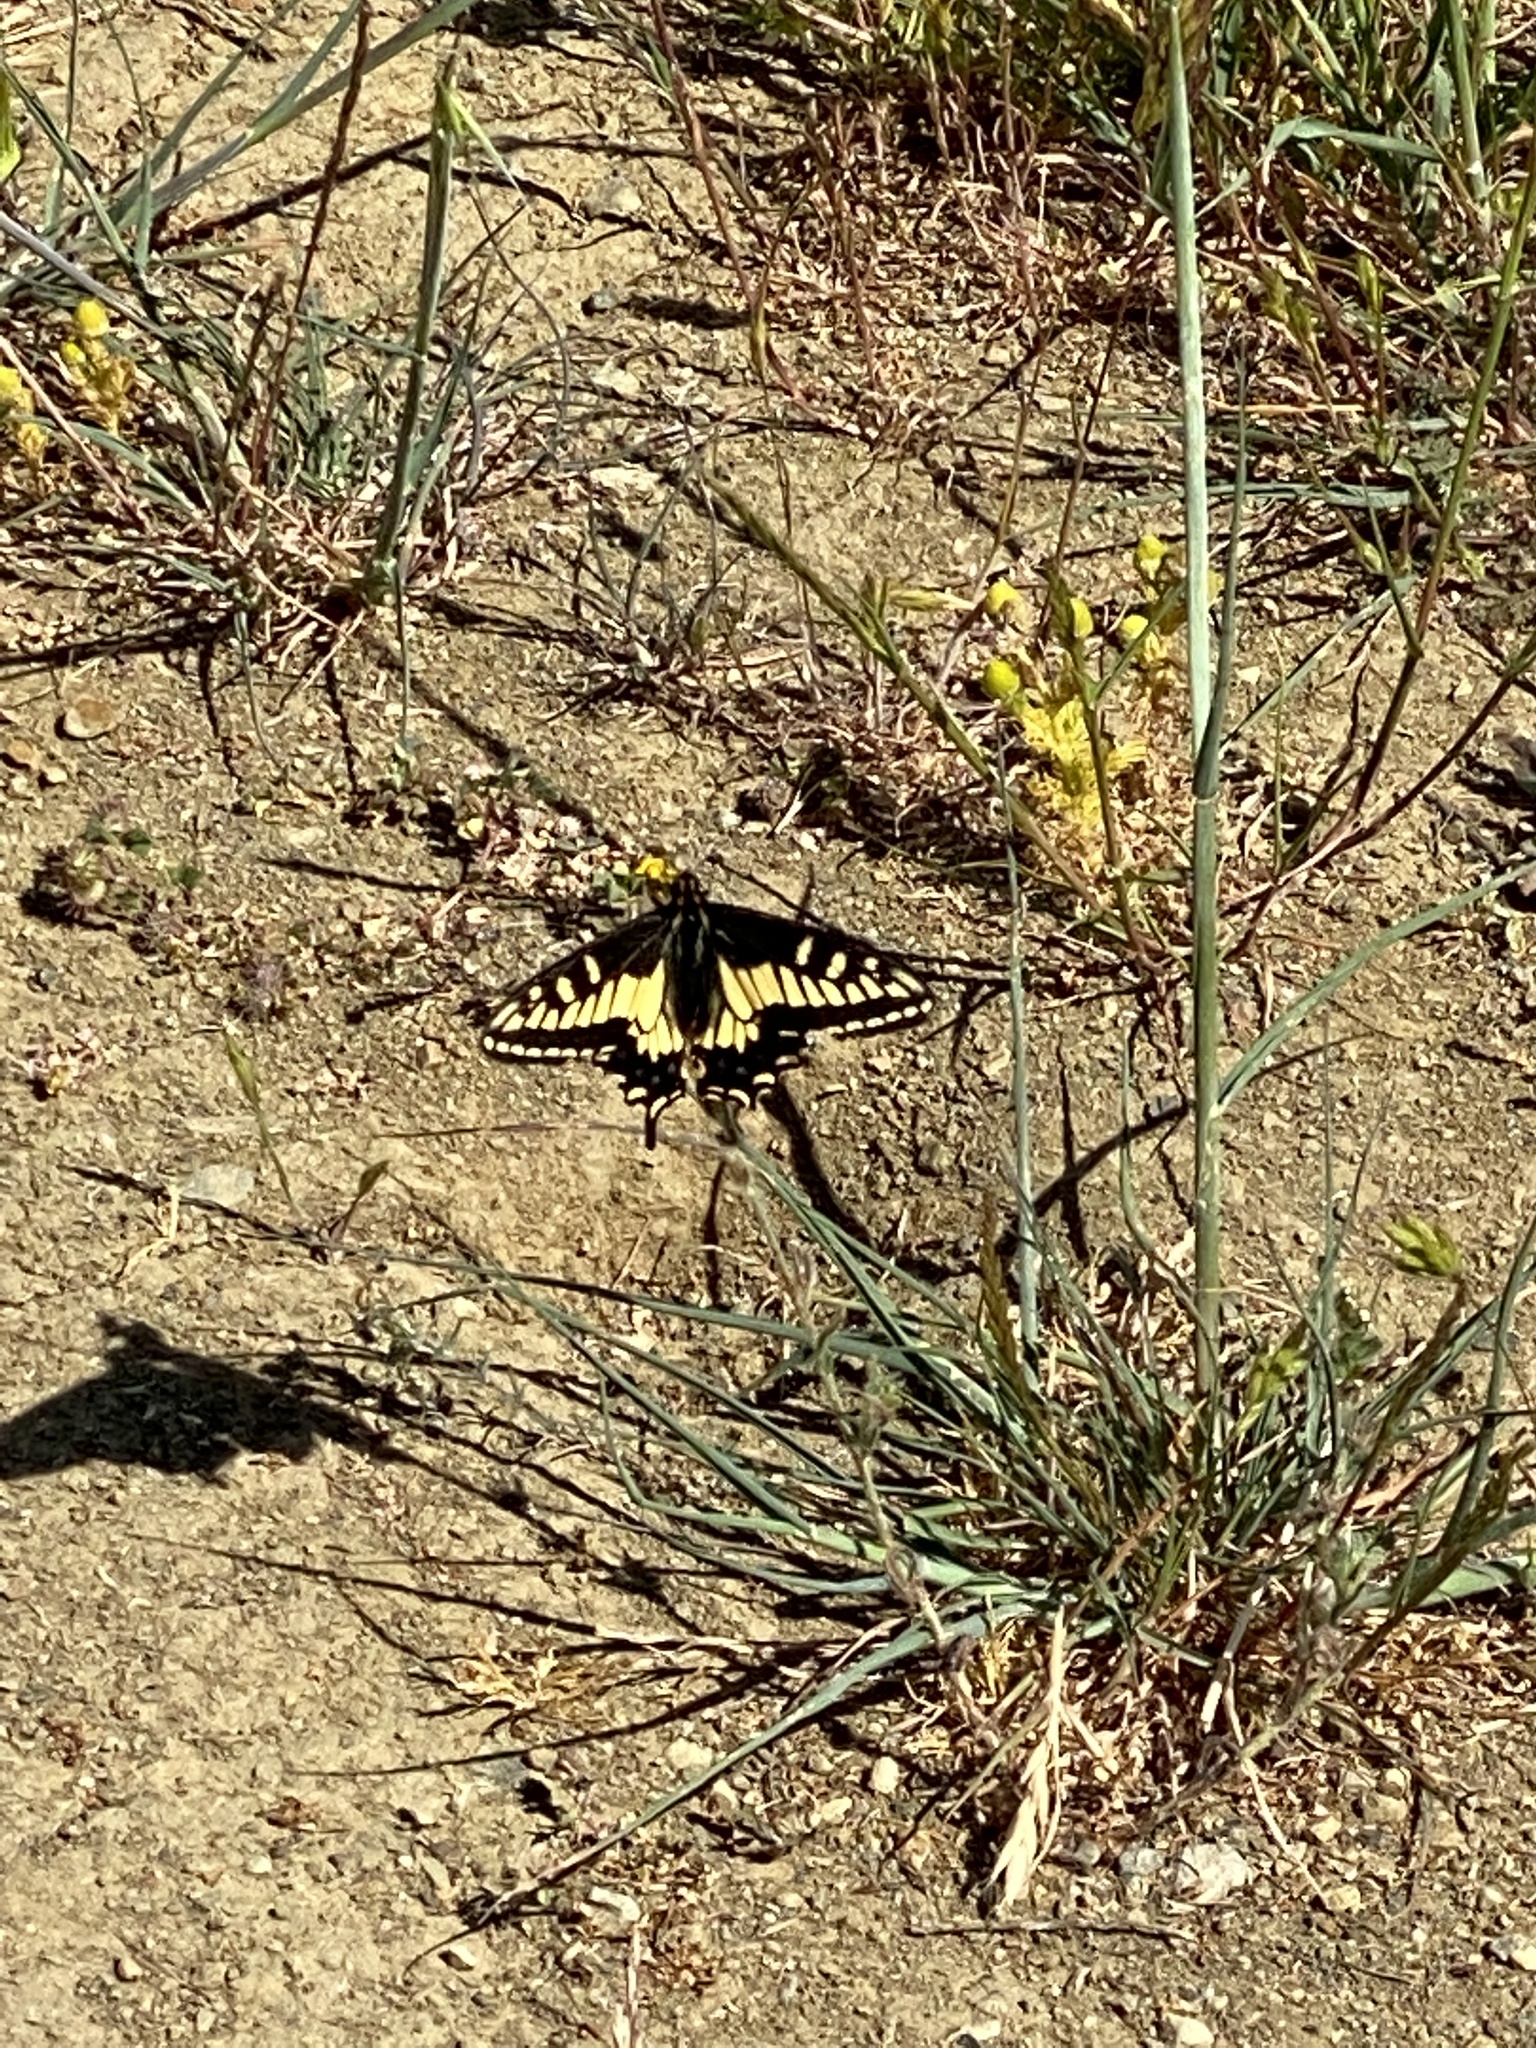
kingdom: Animalia
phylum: Arthropoda
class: Insecta
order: Lepidoptera
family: Papilionidae
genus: Papilio
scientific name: Papilio zelicaon
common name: Anise swallowtail
